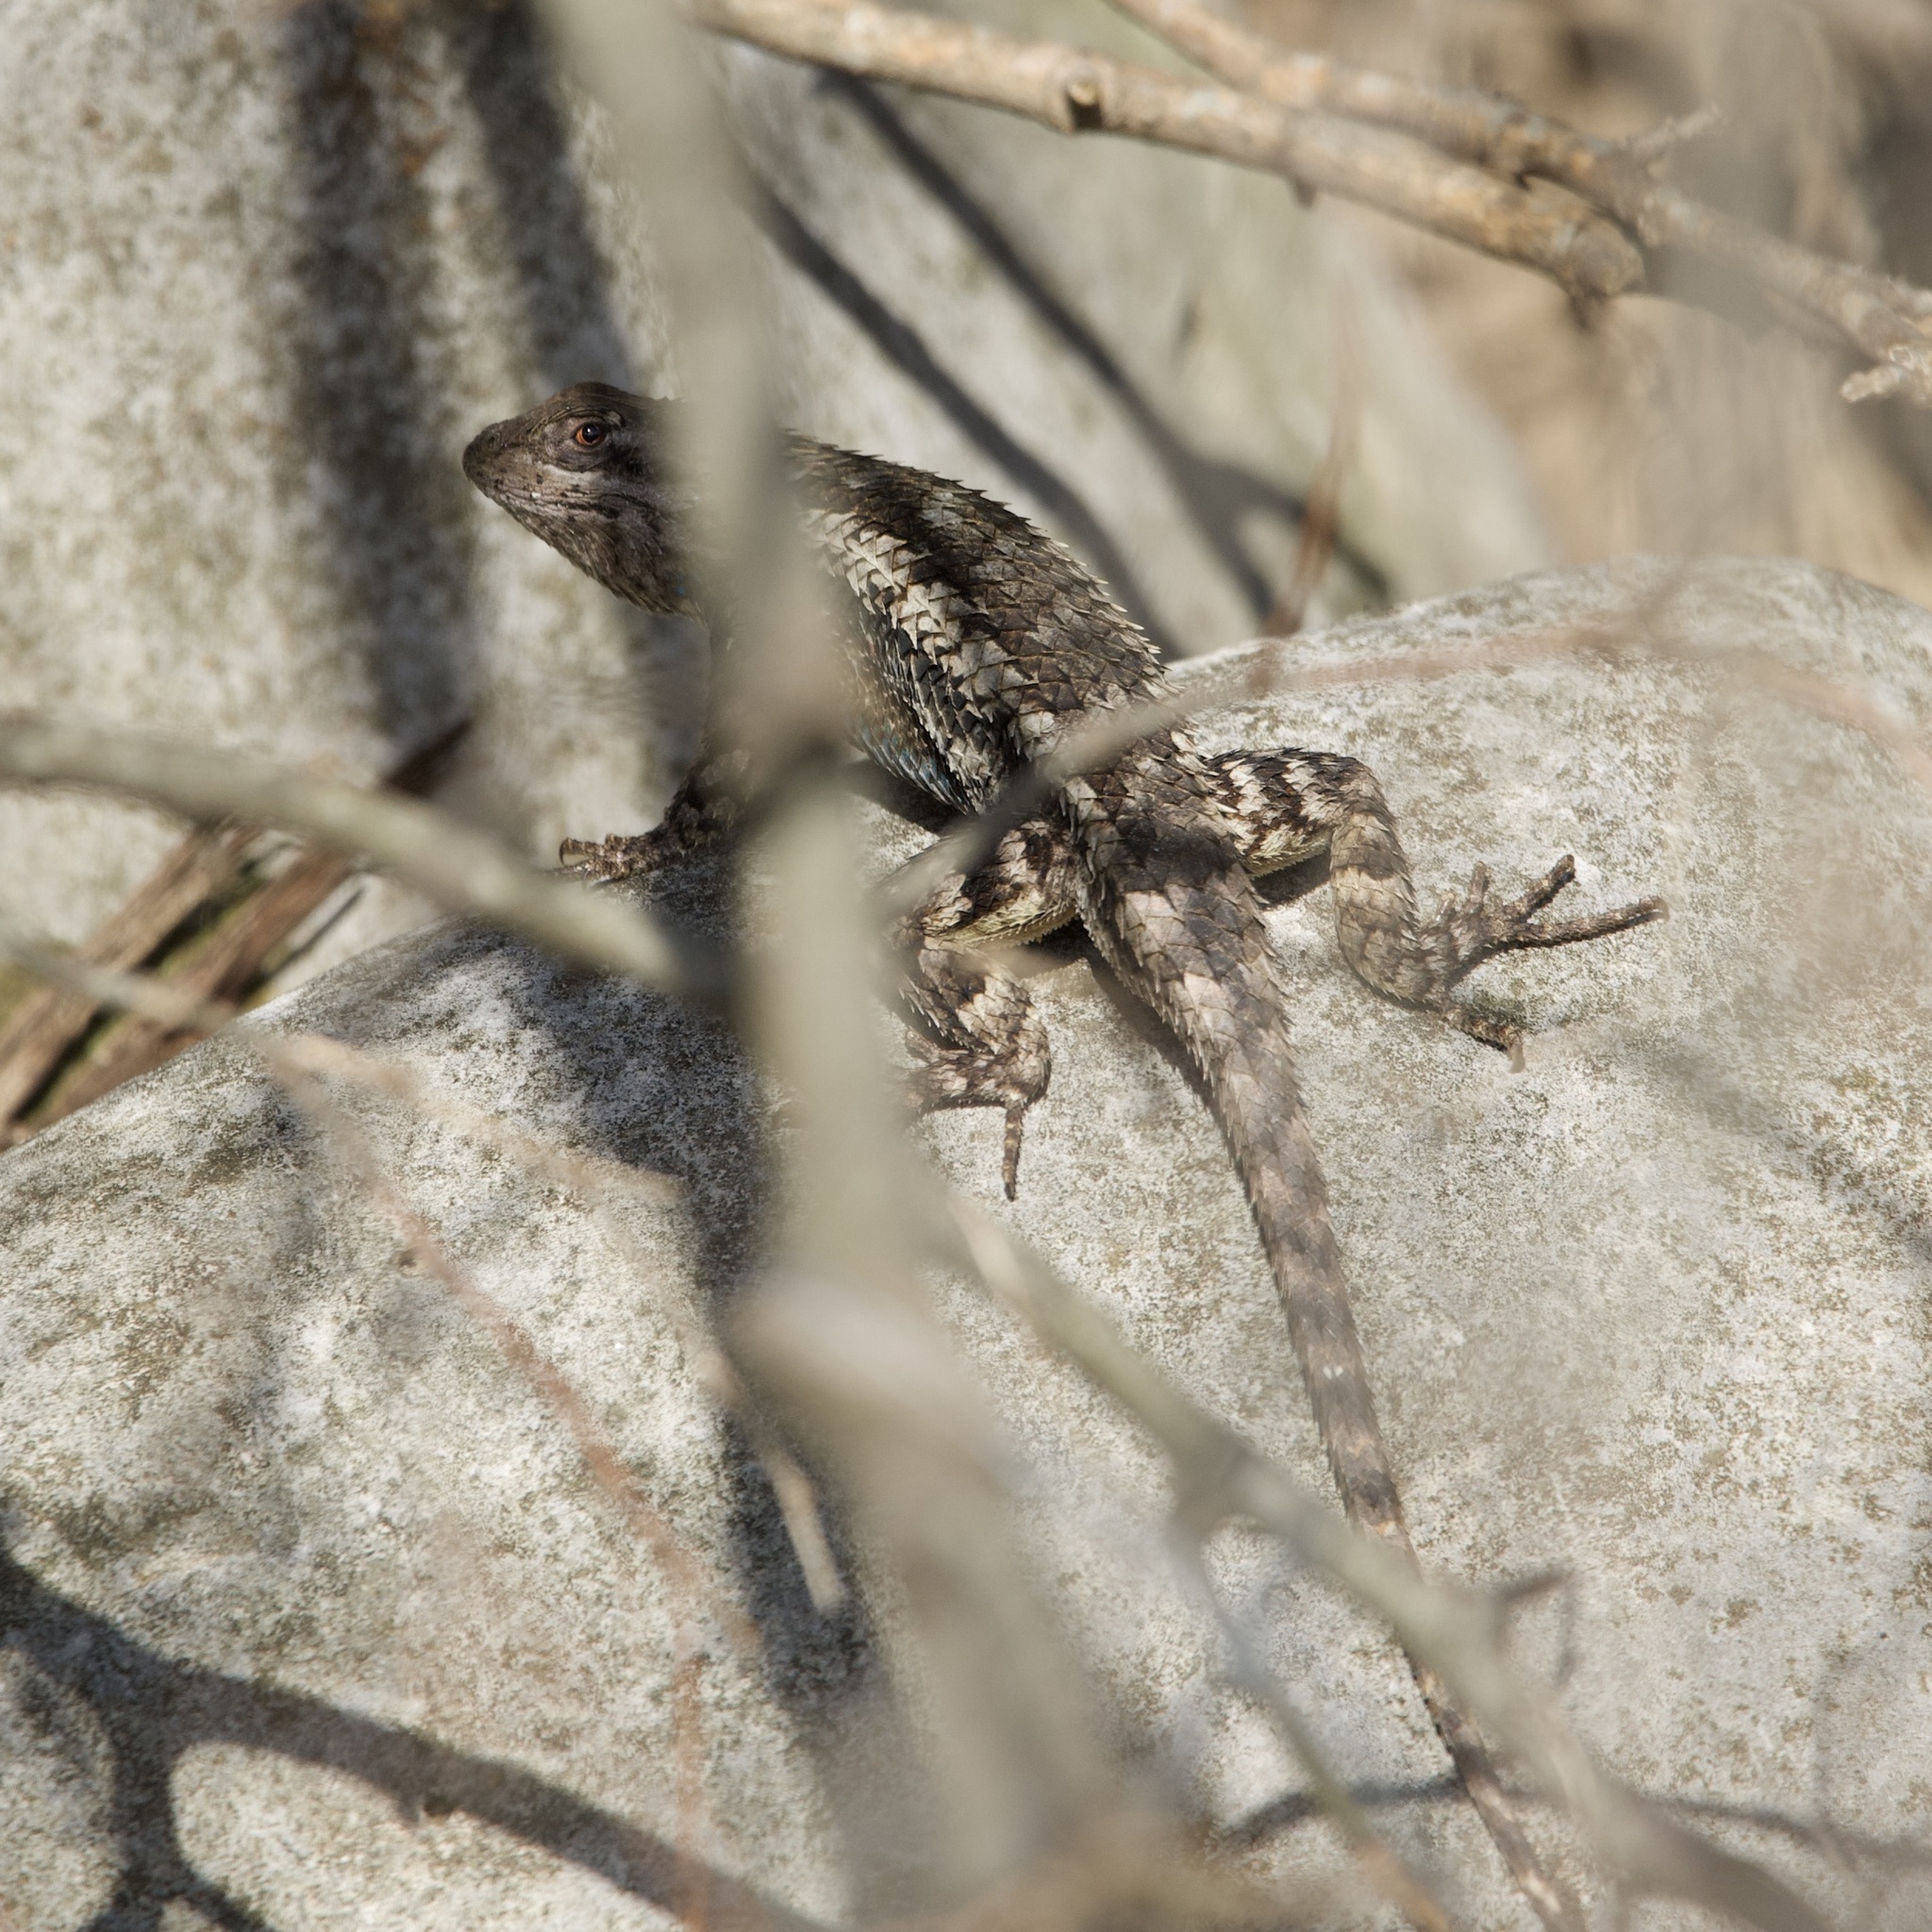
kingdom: Animalia
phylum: Chordata
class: Squamata
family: Phrynosomatidae
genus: Sceloporus
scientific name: Sceloporus olivaceus
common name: Texas spiny lizard
